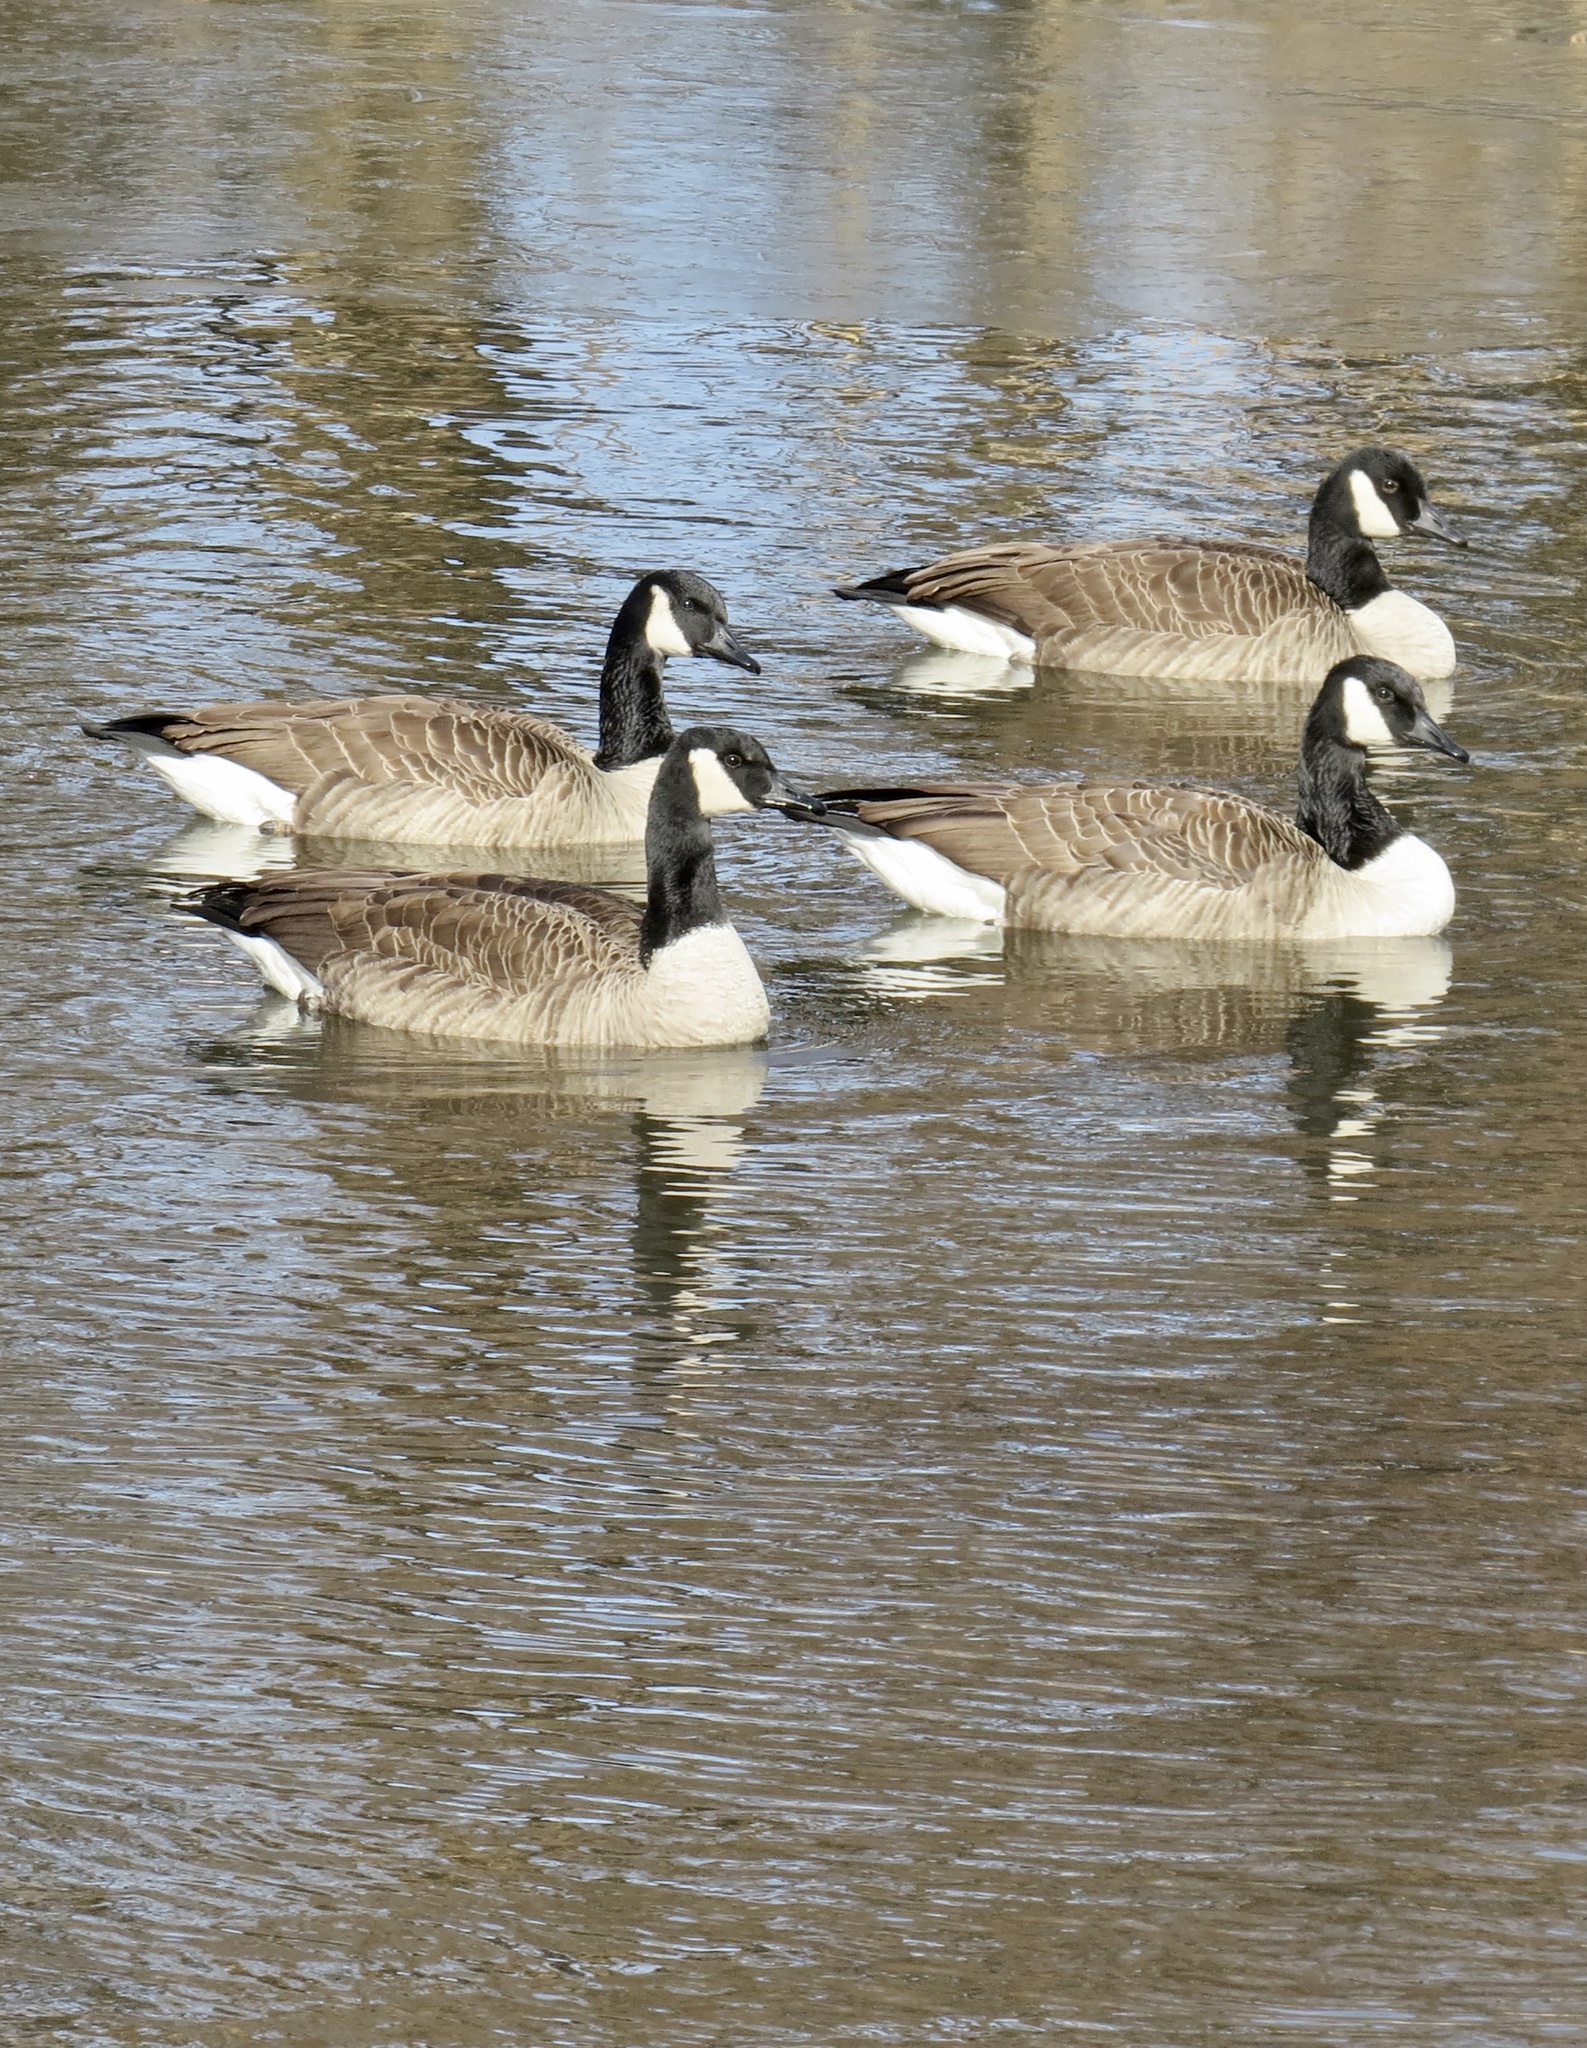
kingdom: Animalia
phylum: Chordata
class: Aves
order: Anseriformes
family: Anatidae
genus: Branta
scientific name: Branta canadensis
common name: Canada goose
